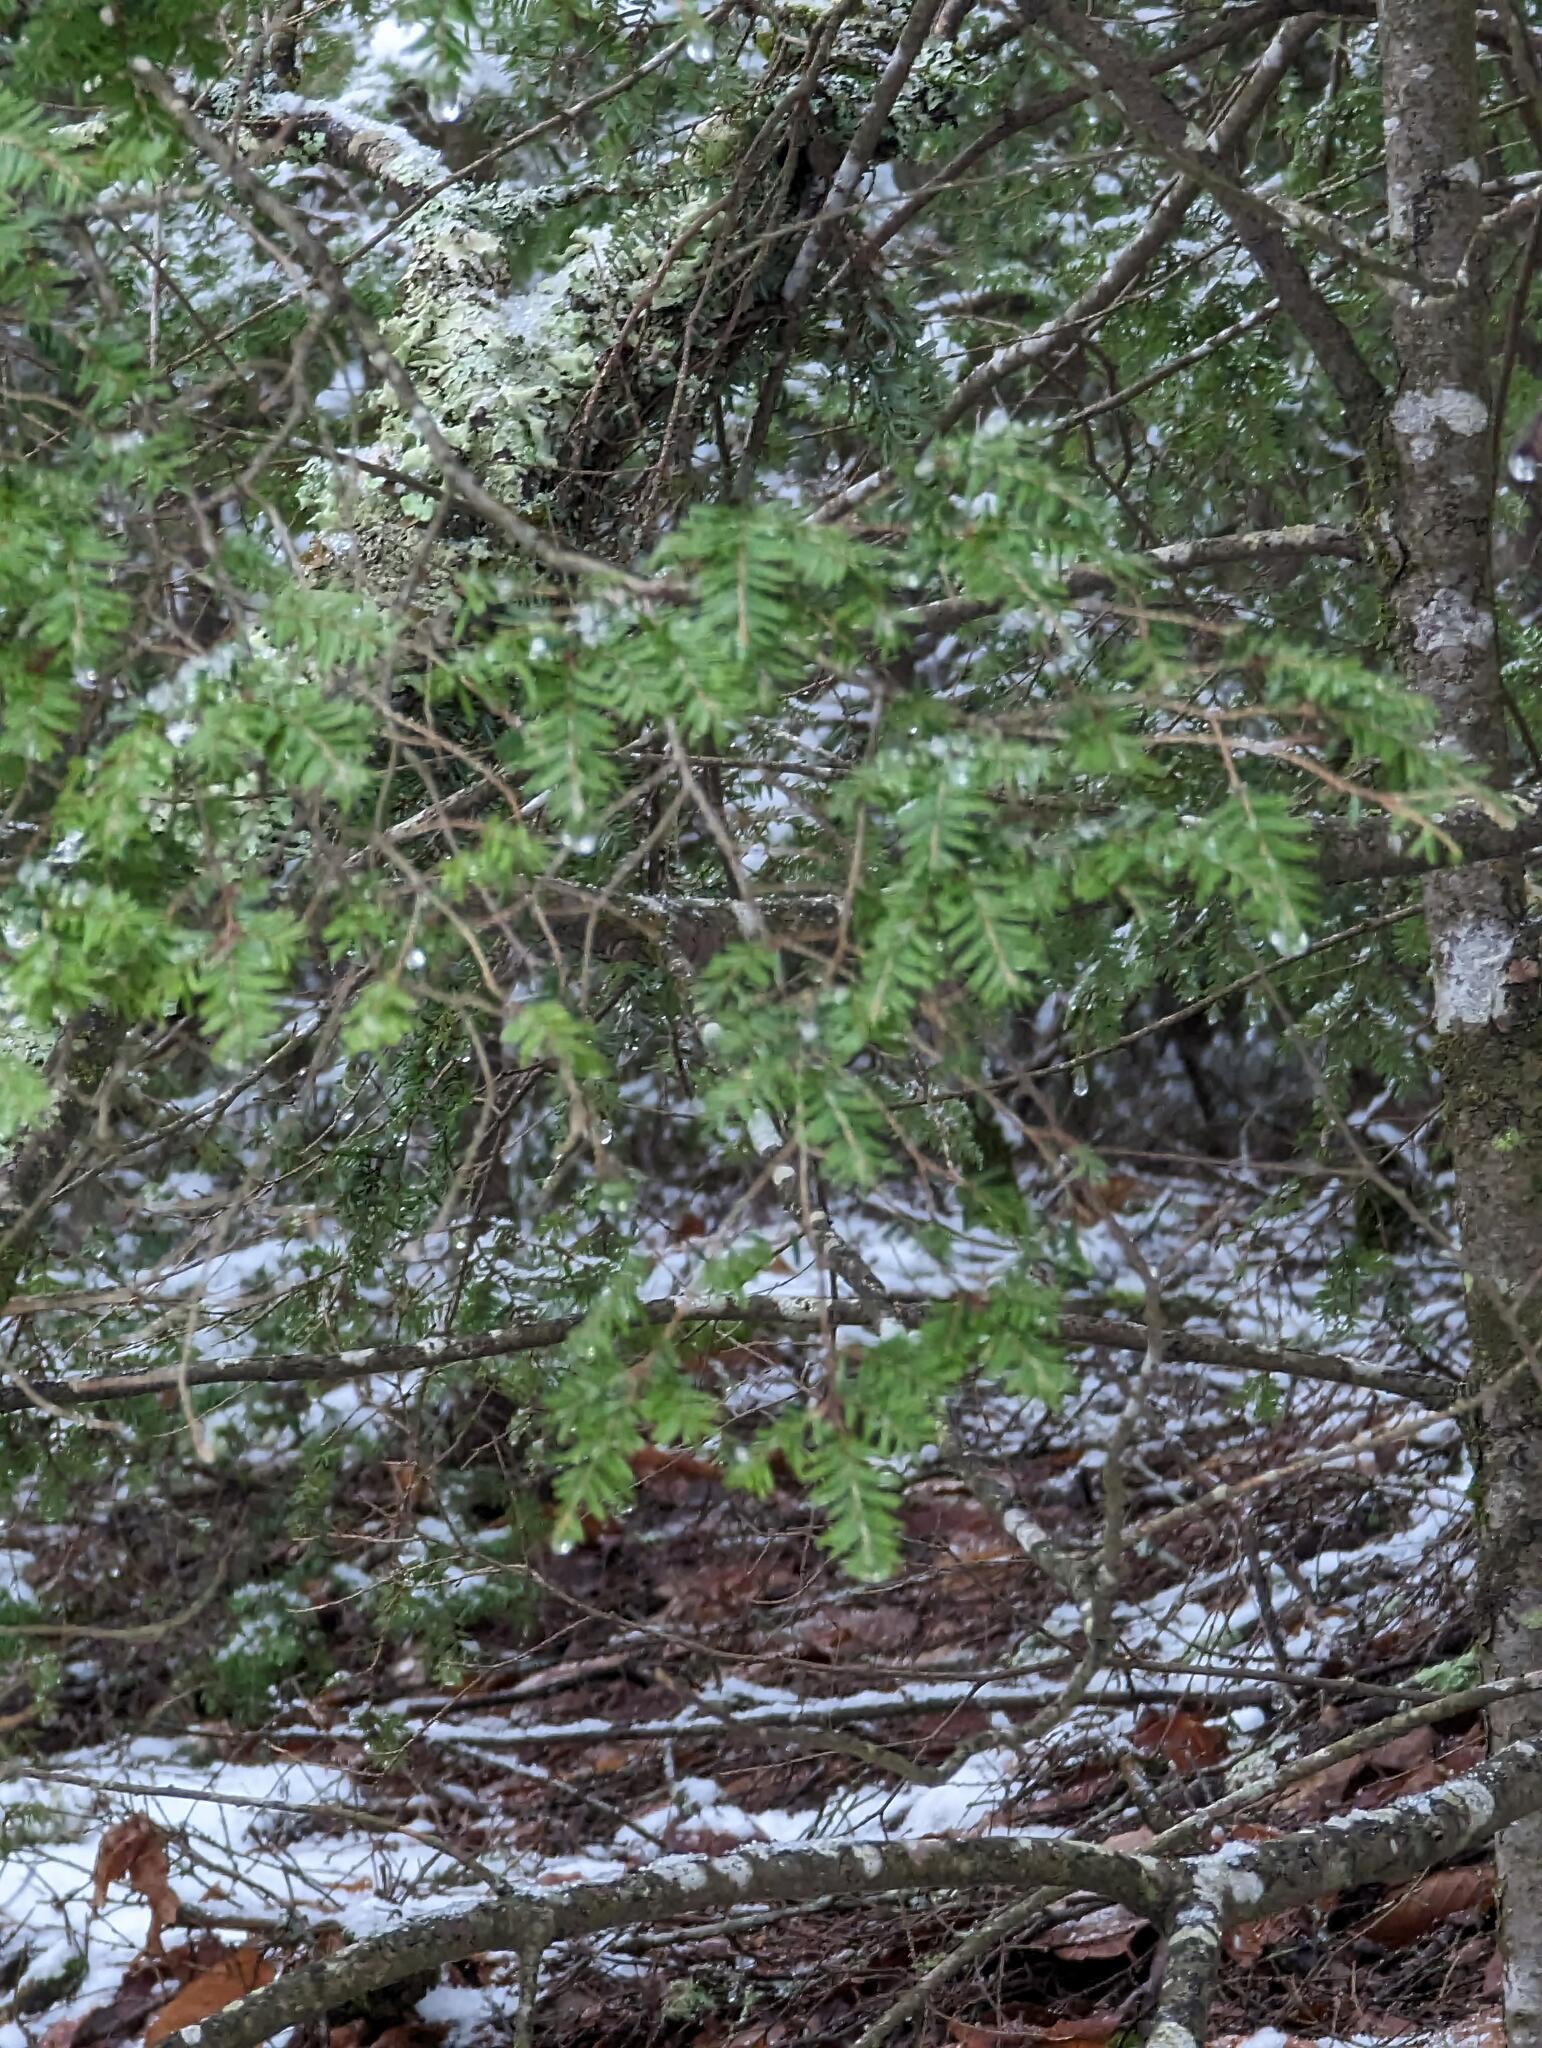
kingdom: Plantae
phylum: Tracheophyta
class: Pinopsida
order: Pinales
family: Pinaceae
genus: Tsuga
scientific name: Tsuga canadensis
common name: Eastern hemlock
